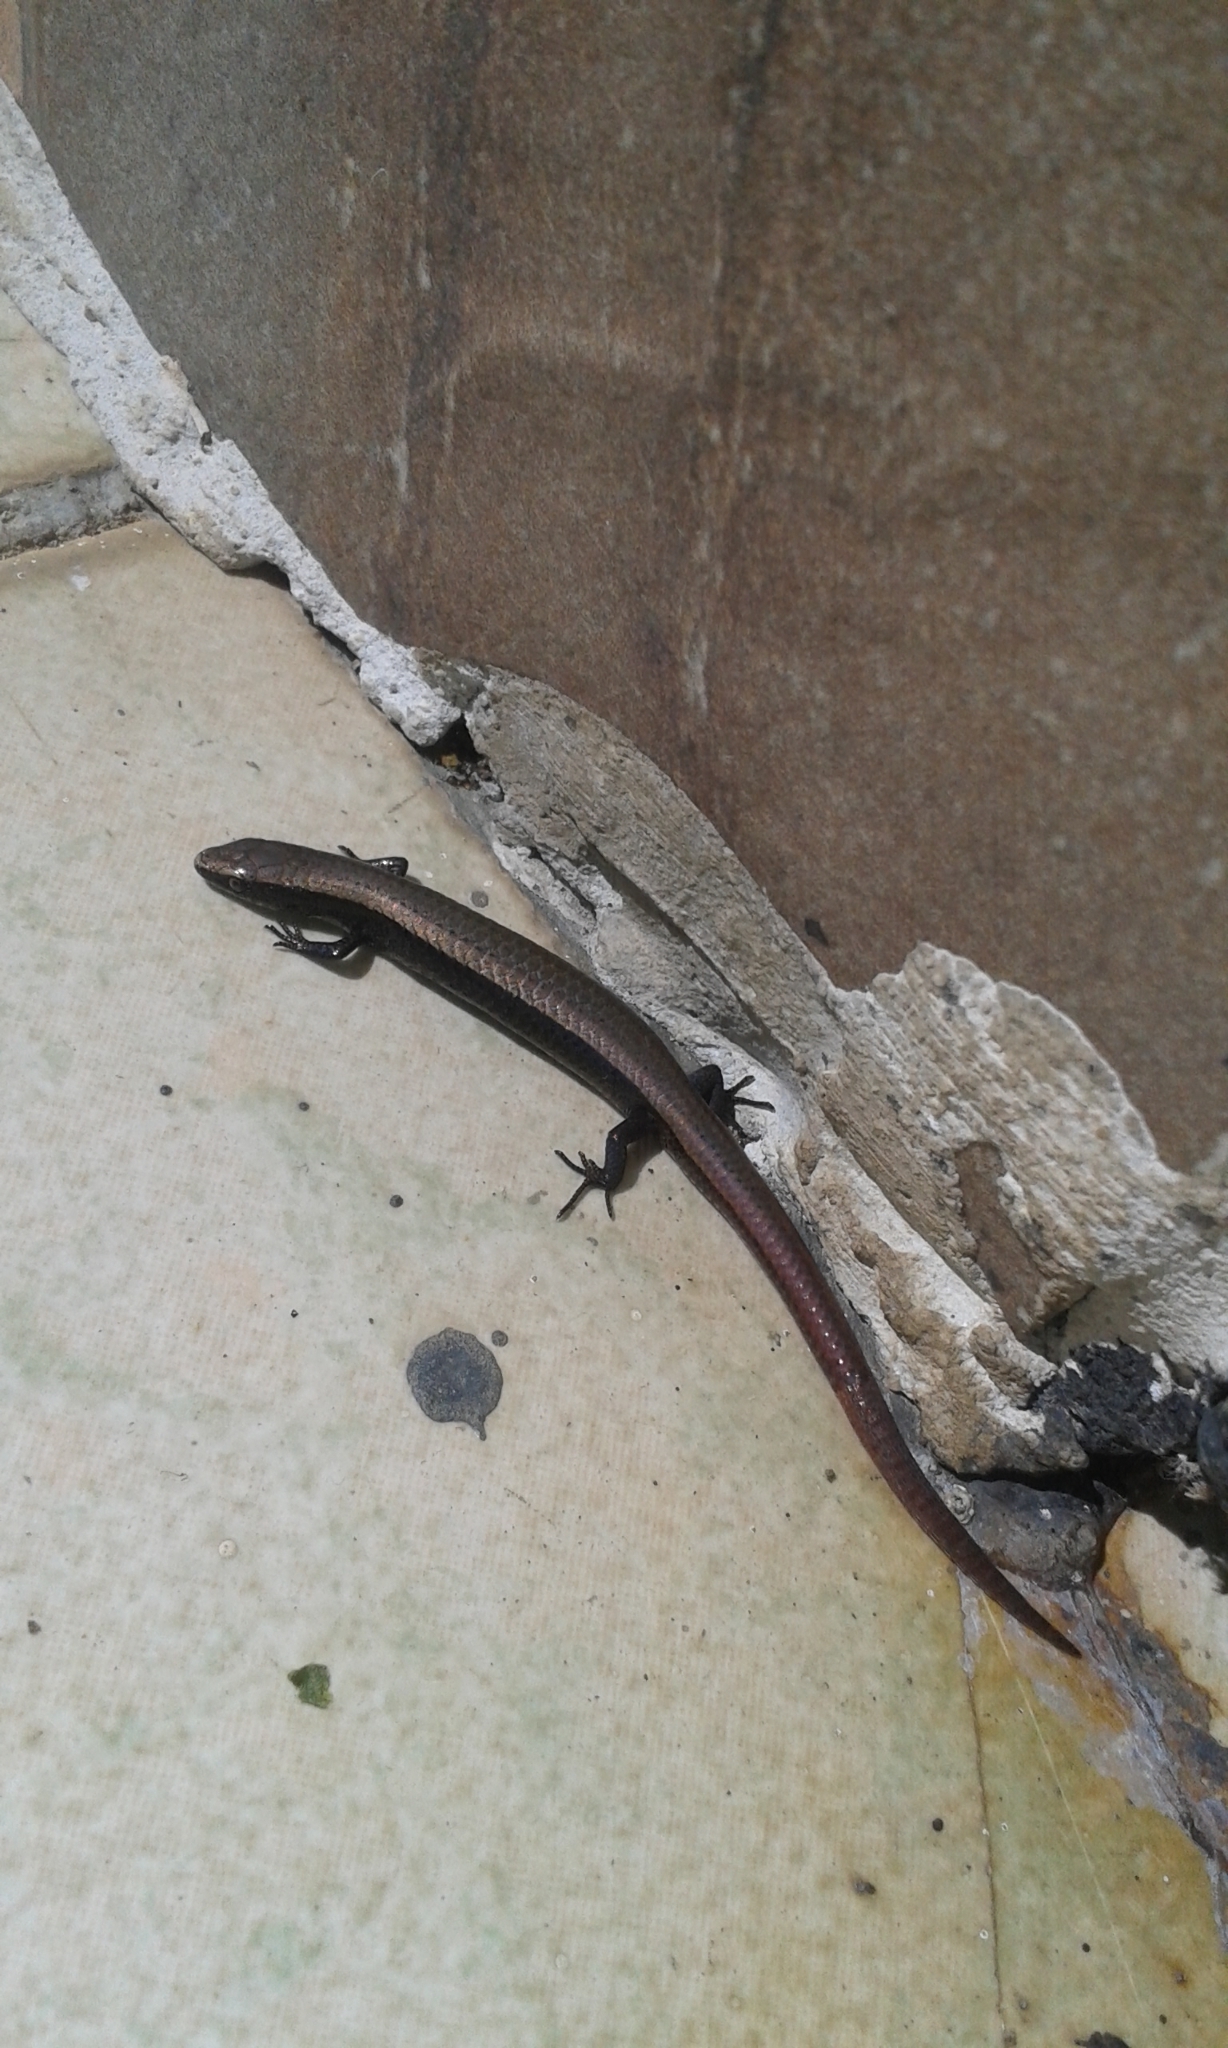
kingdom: Animalia
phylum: Chordata
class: Squamata
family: Gymnophthalmidae
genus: Gymnophthalmus
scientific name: Gymnophthalmus speciosus
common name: Golden spectacled tegu
